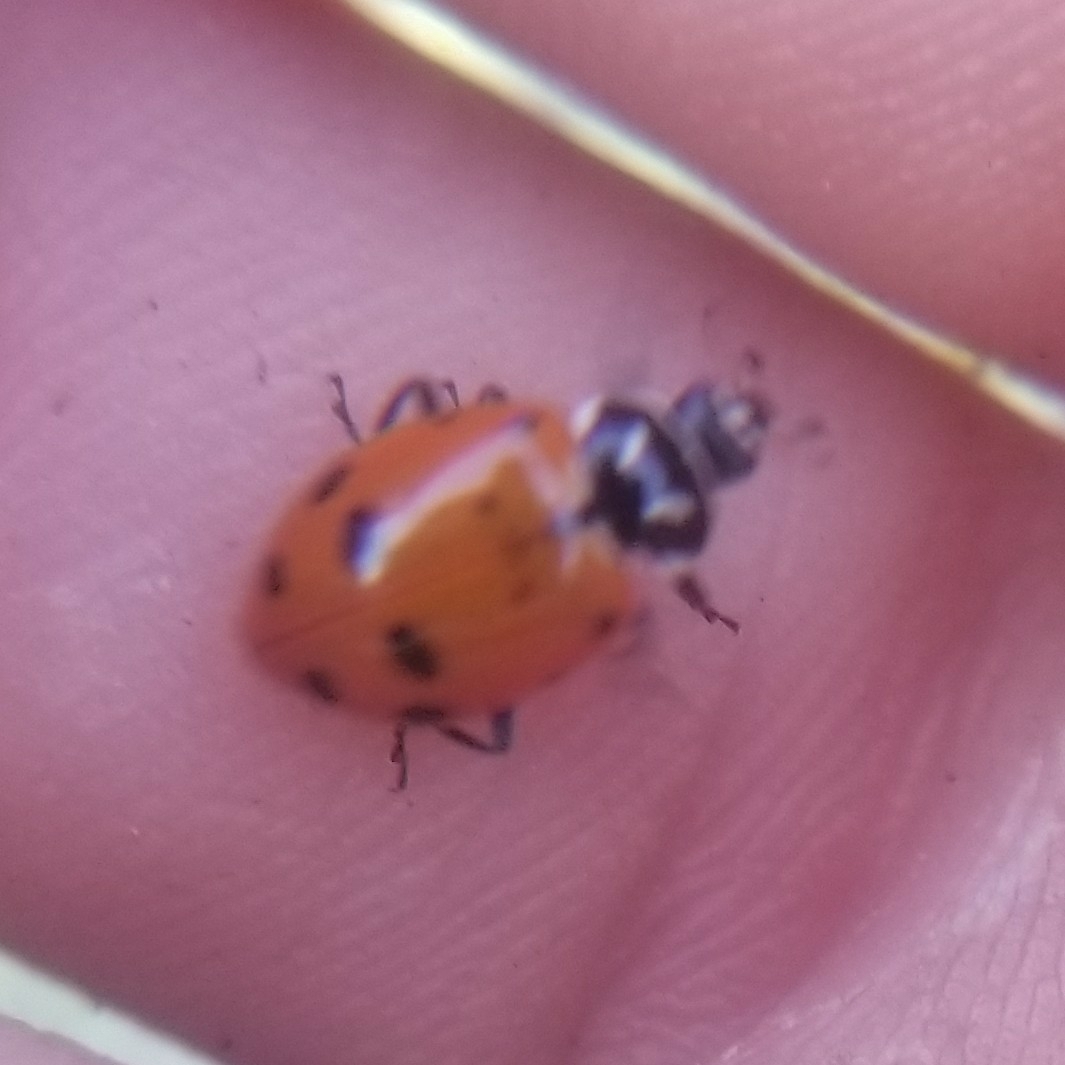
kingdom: Animalia
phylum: Arthropoda
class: Insecta
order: Coleoptera
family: Coccinellidae
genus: Hippodamia
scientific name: Hippodamia convergens
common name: Convergent lady beetle
